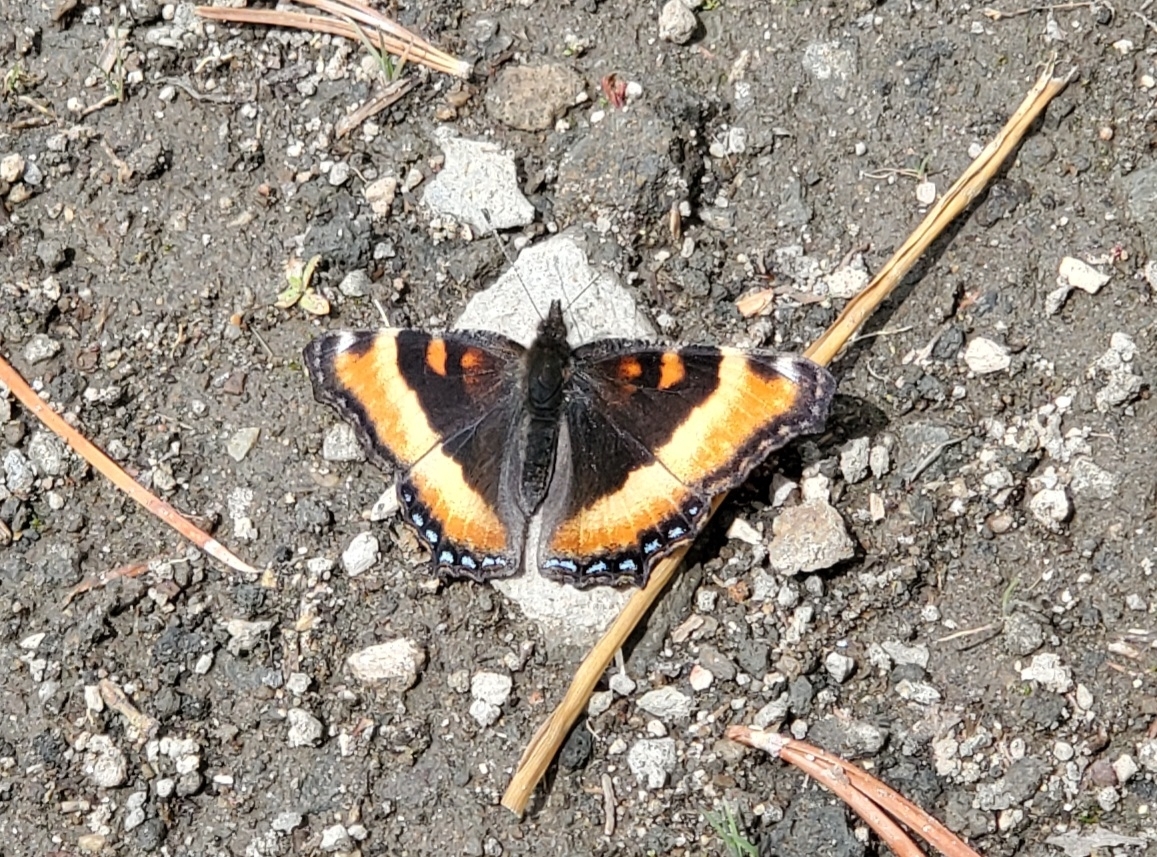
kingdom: Animalia
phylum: Arthropoda
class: Insecta
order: Lepidoptera
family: Nymphalidae
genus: Aglais
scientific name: Aglais milberti
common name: Milbert's tortoiseshell
